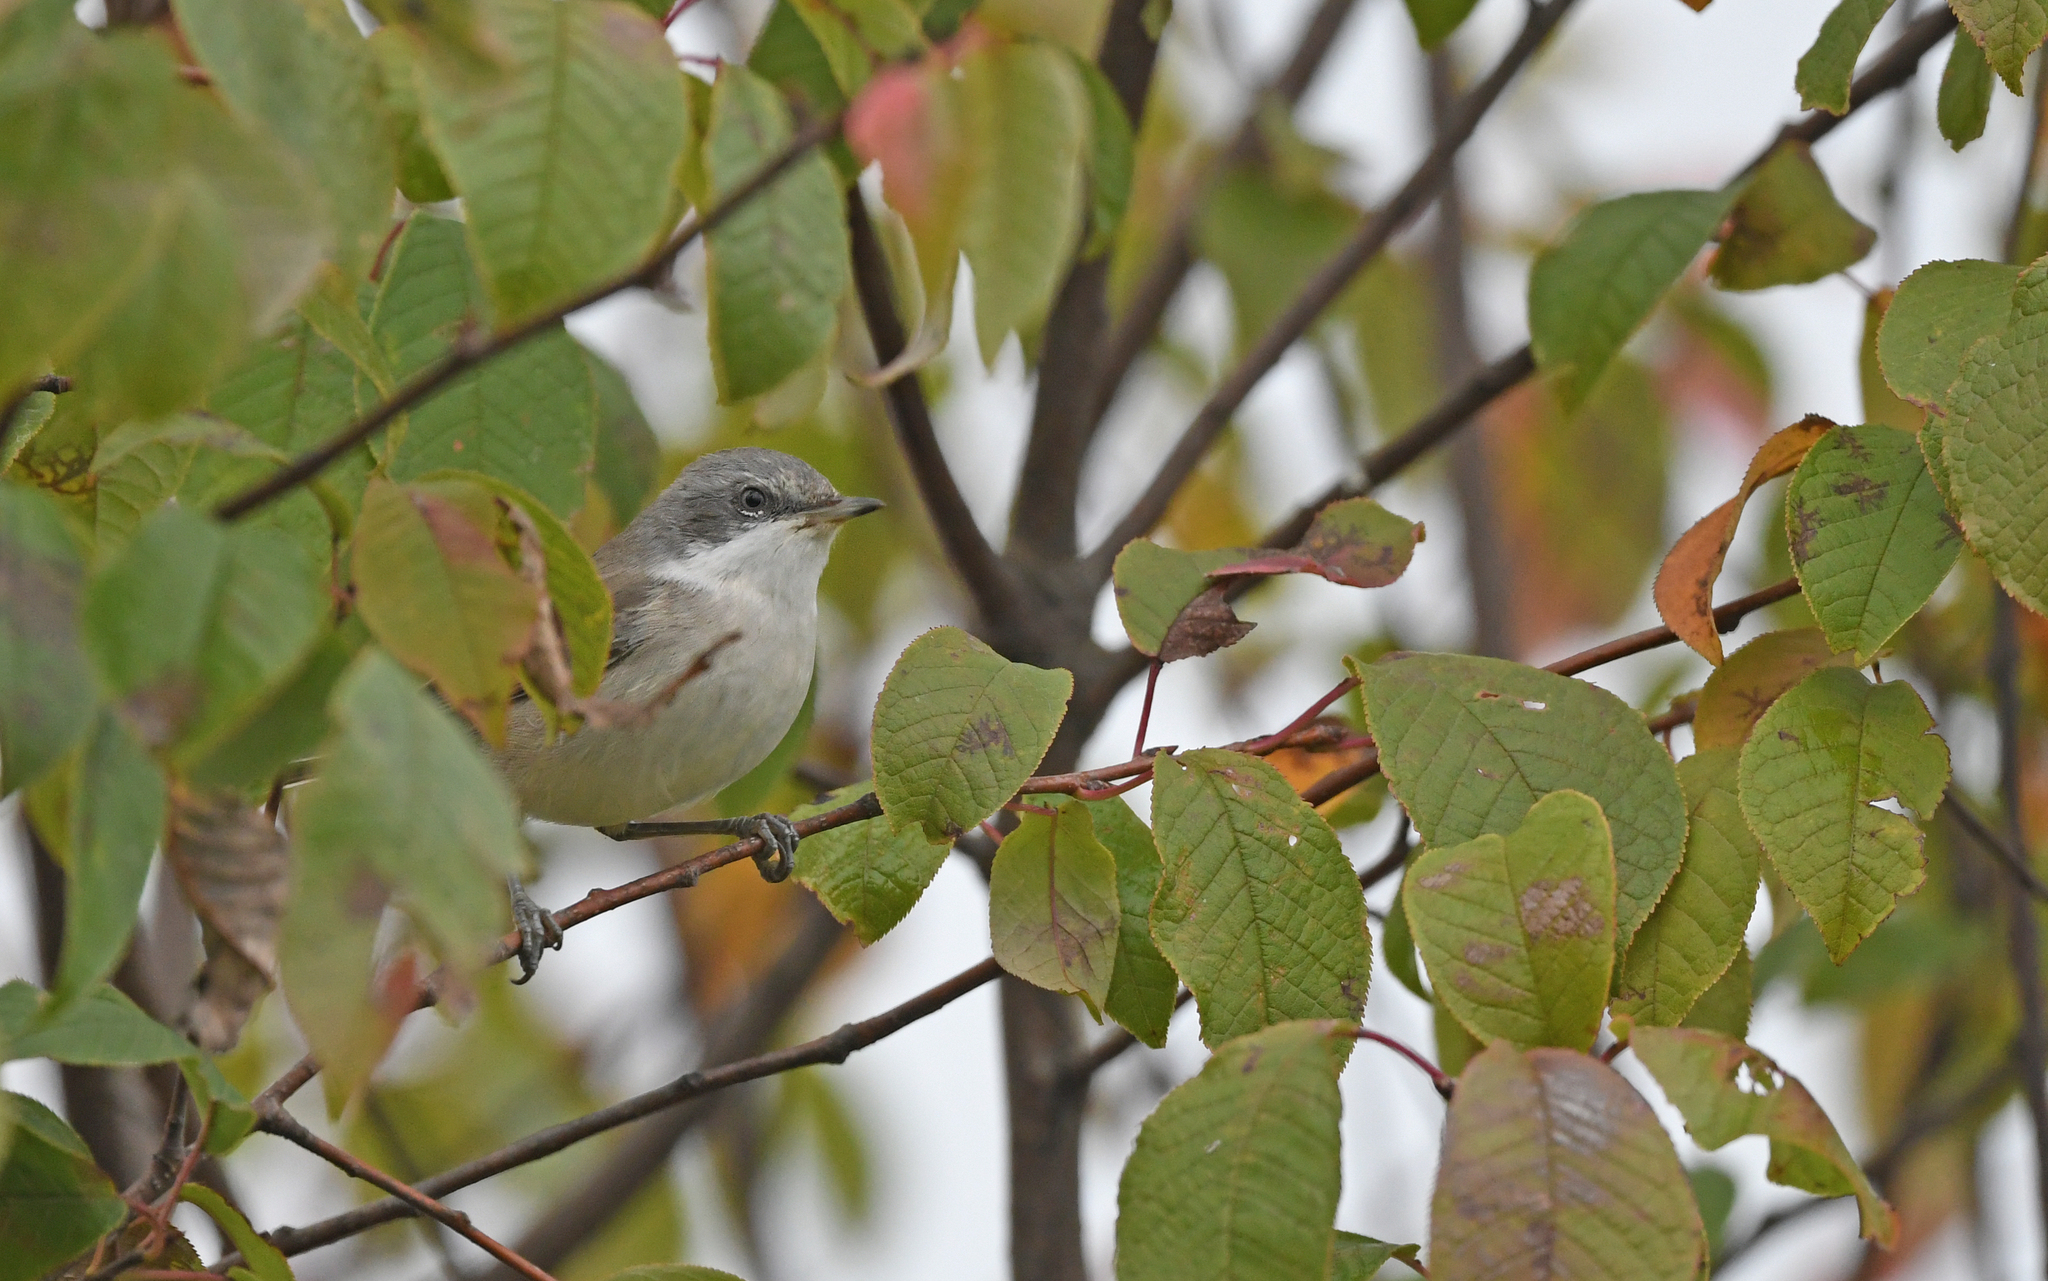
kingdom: Animalia
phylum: Chordata
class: Aves
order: Passeriformes
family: Sylviidae
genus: Sylvia
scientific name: Sylvia curruca
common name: Lesser whitethroat
